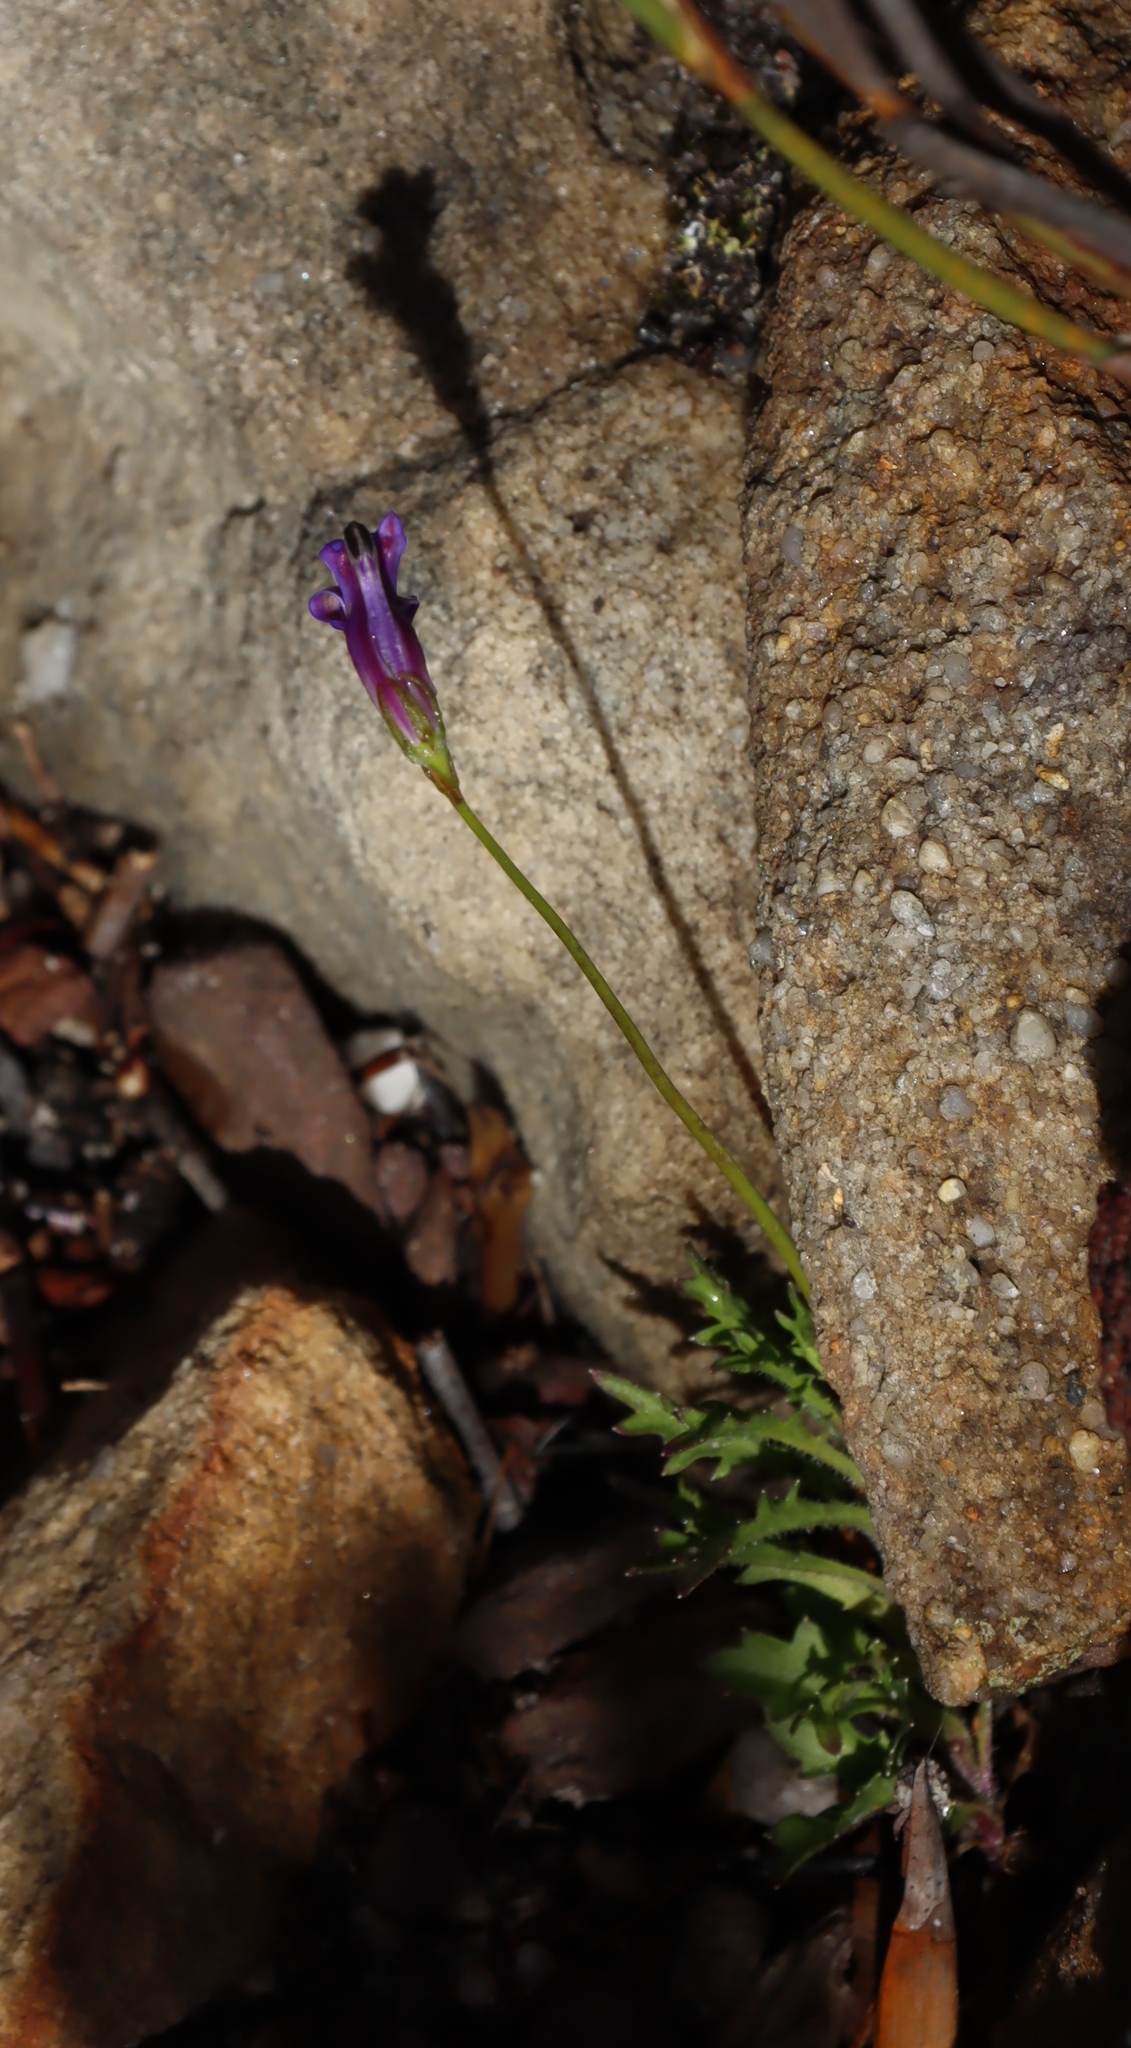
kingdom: Plantae
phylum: Tracheophyta
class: Magnoliopsida
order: Asterales
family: Campanulaceae
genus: Lobelia
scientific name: Lobelia coronopifolia
